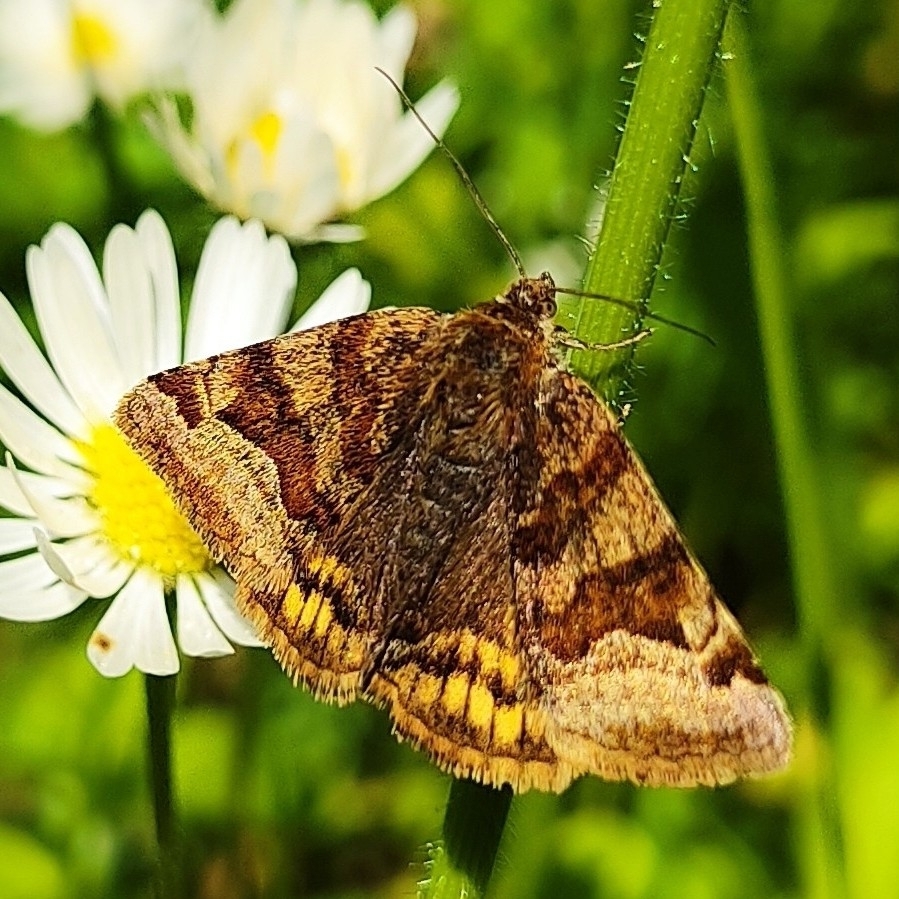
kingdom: Animalia
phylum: Arthropoda
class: Insecta
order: Lepidoptera
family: Erebidae
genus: Euclidia
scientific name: Euclidia glyphica
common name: Burnet companion
